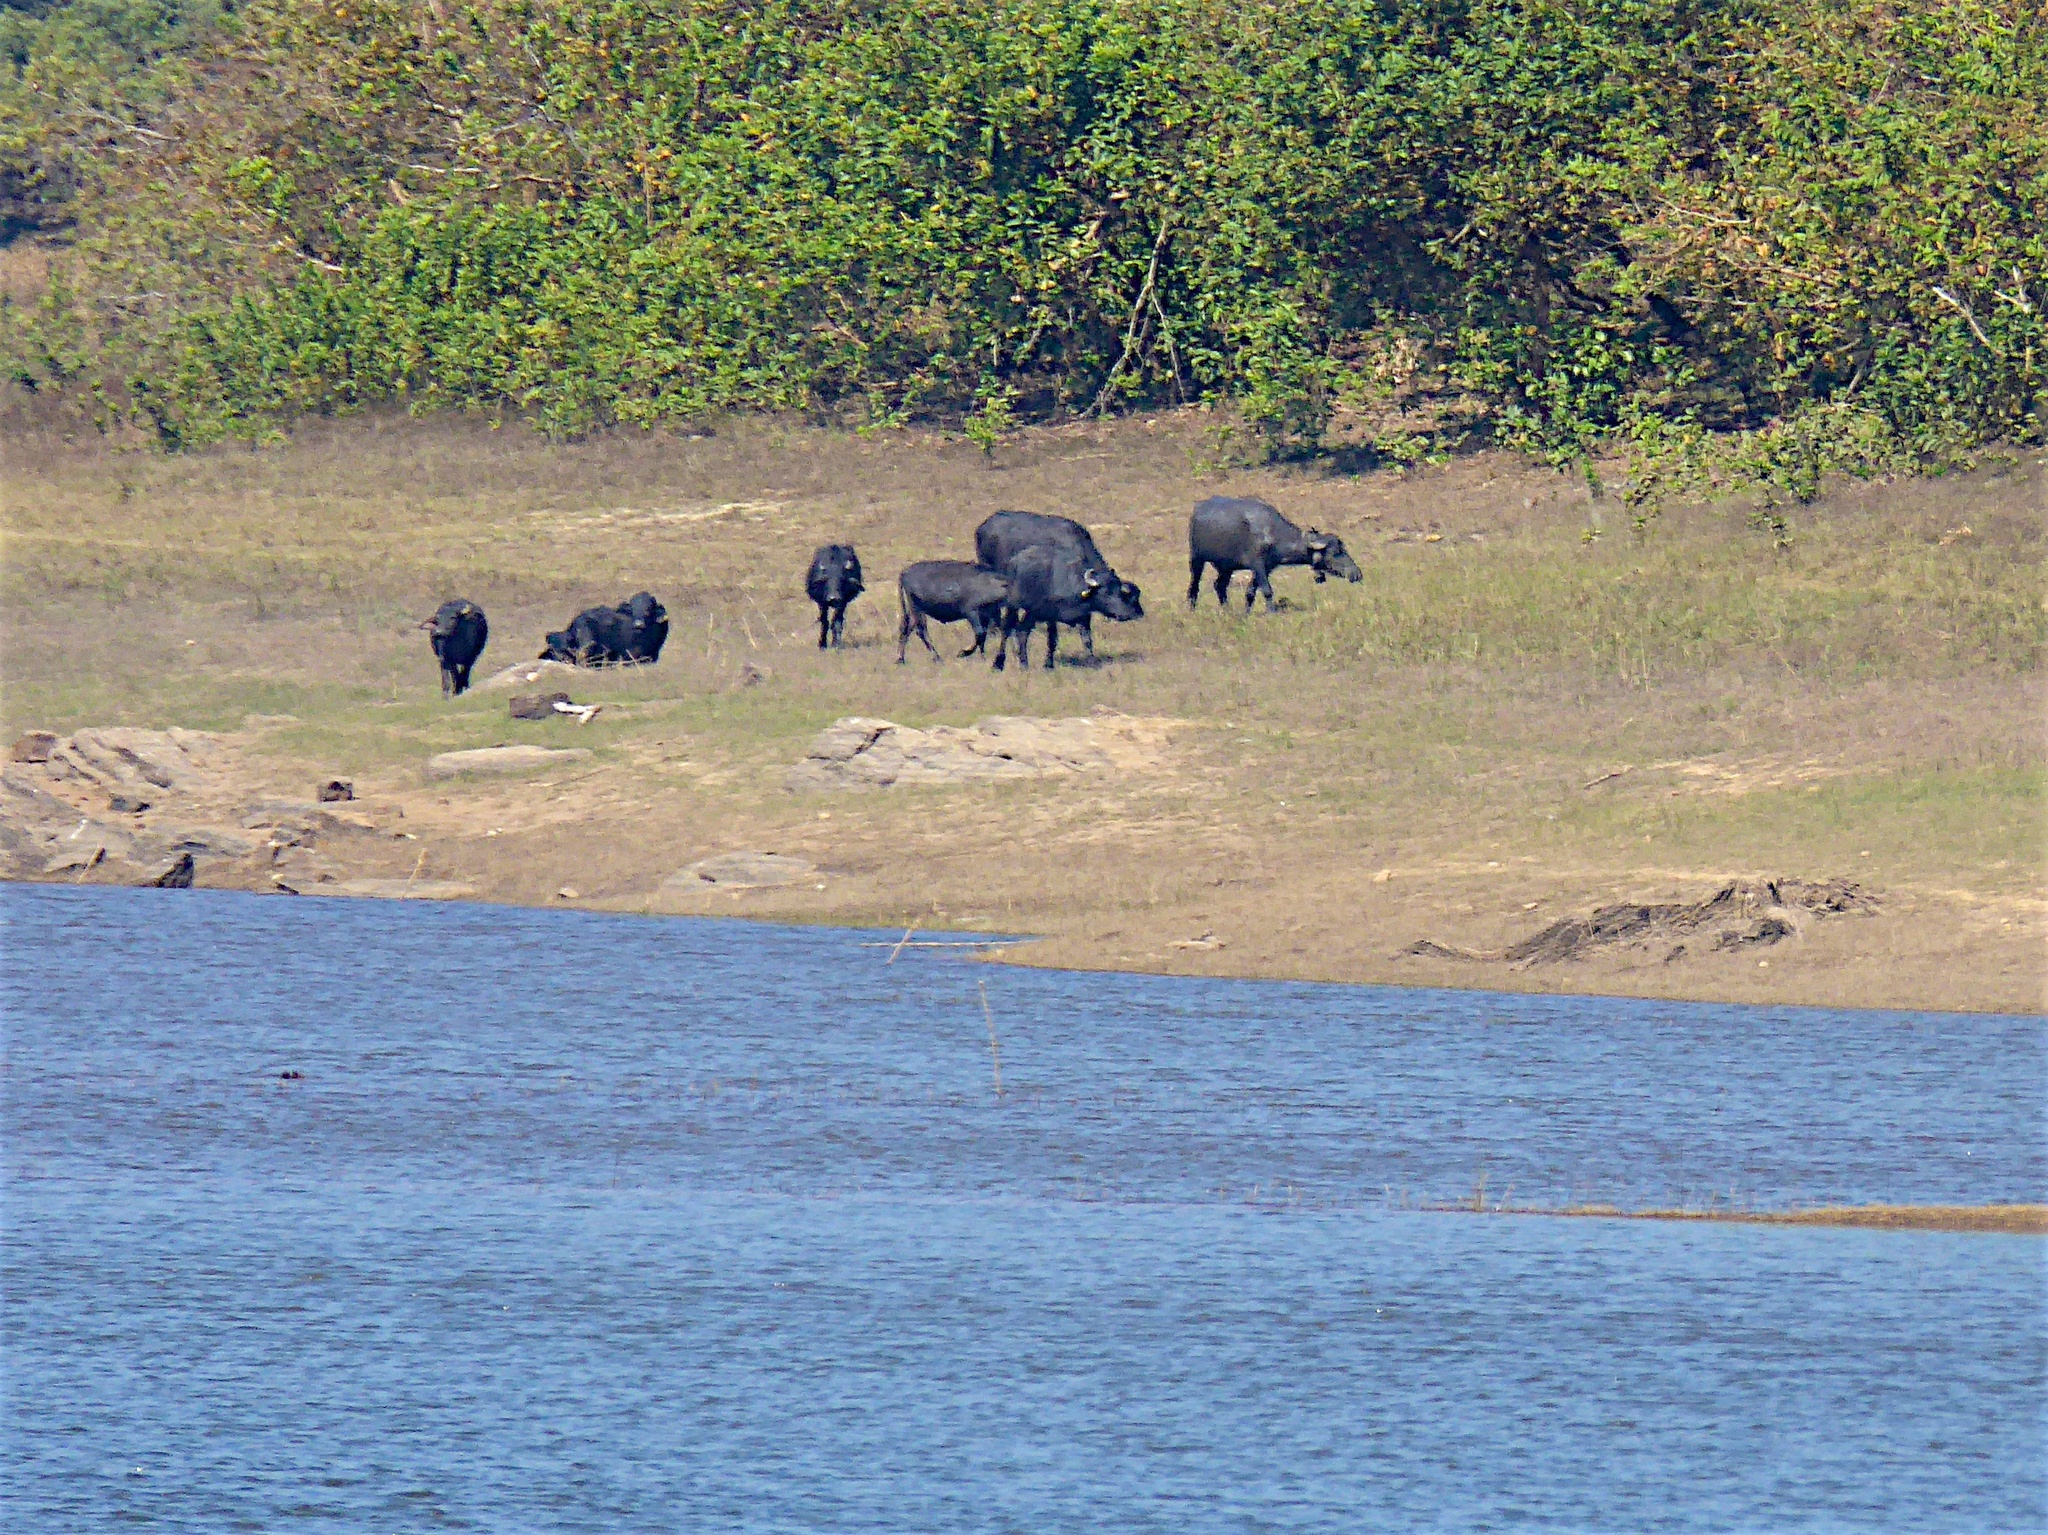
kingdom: Animalia
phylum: Chordata
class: Mammalia
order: Artiodactyla
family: Bovidae
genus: Bubalus
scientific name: Bubalus bubalis
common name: Water buffalo
